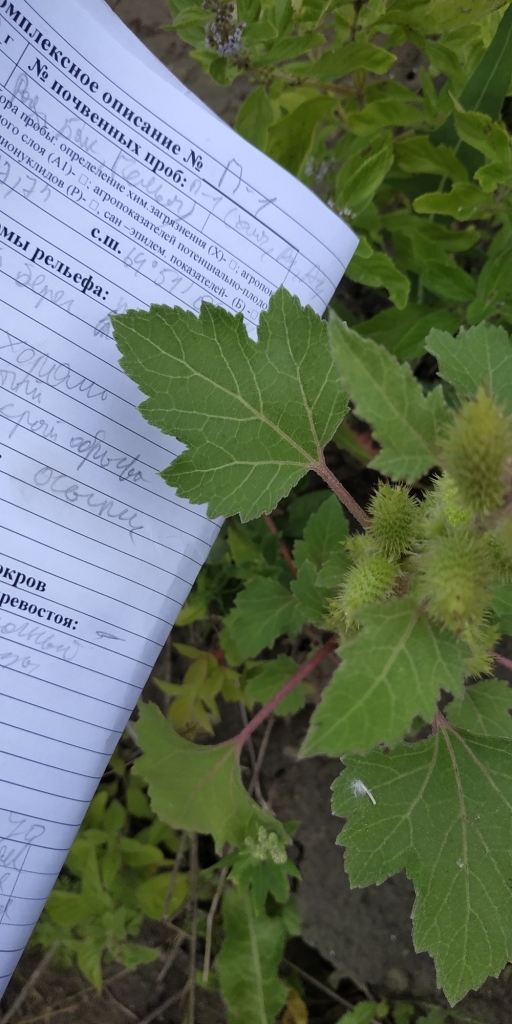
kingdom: Plantae
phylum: Tracheophyta
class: Magnoliopsida
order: Asterales
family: Asteraceae
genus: Xanthium
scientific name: Xanthium orientale
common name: Californian burr
